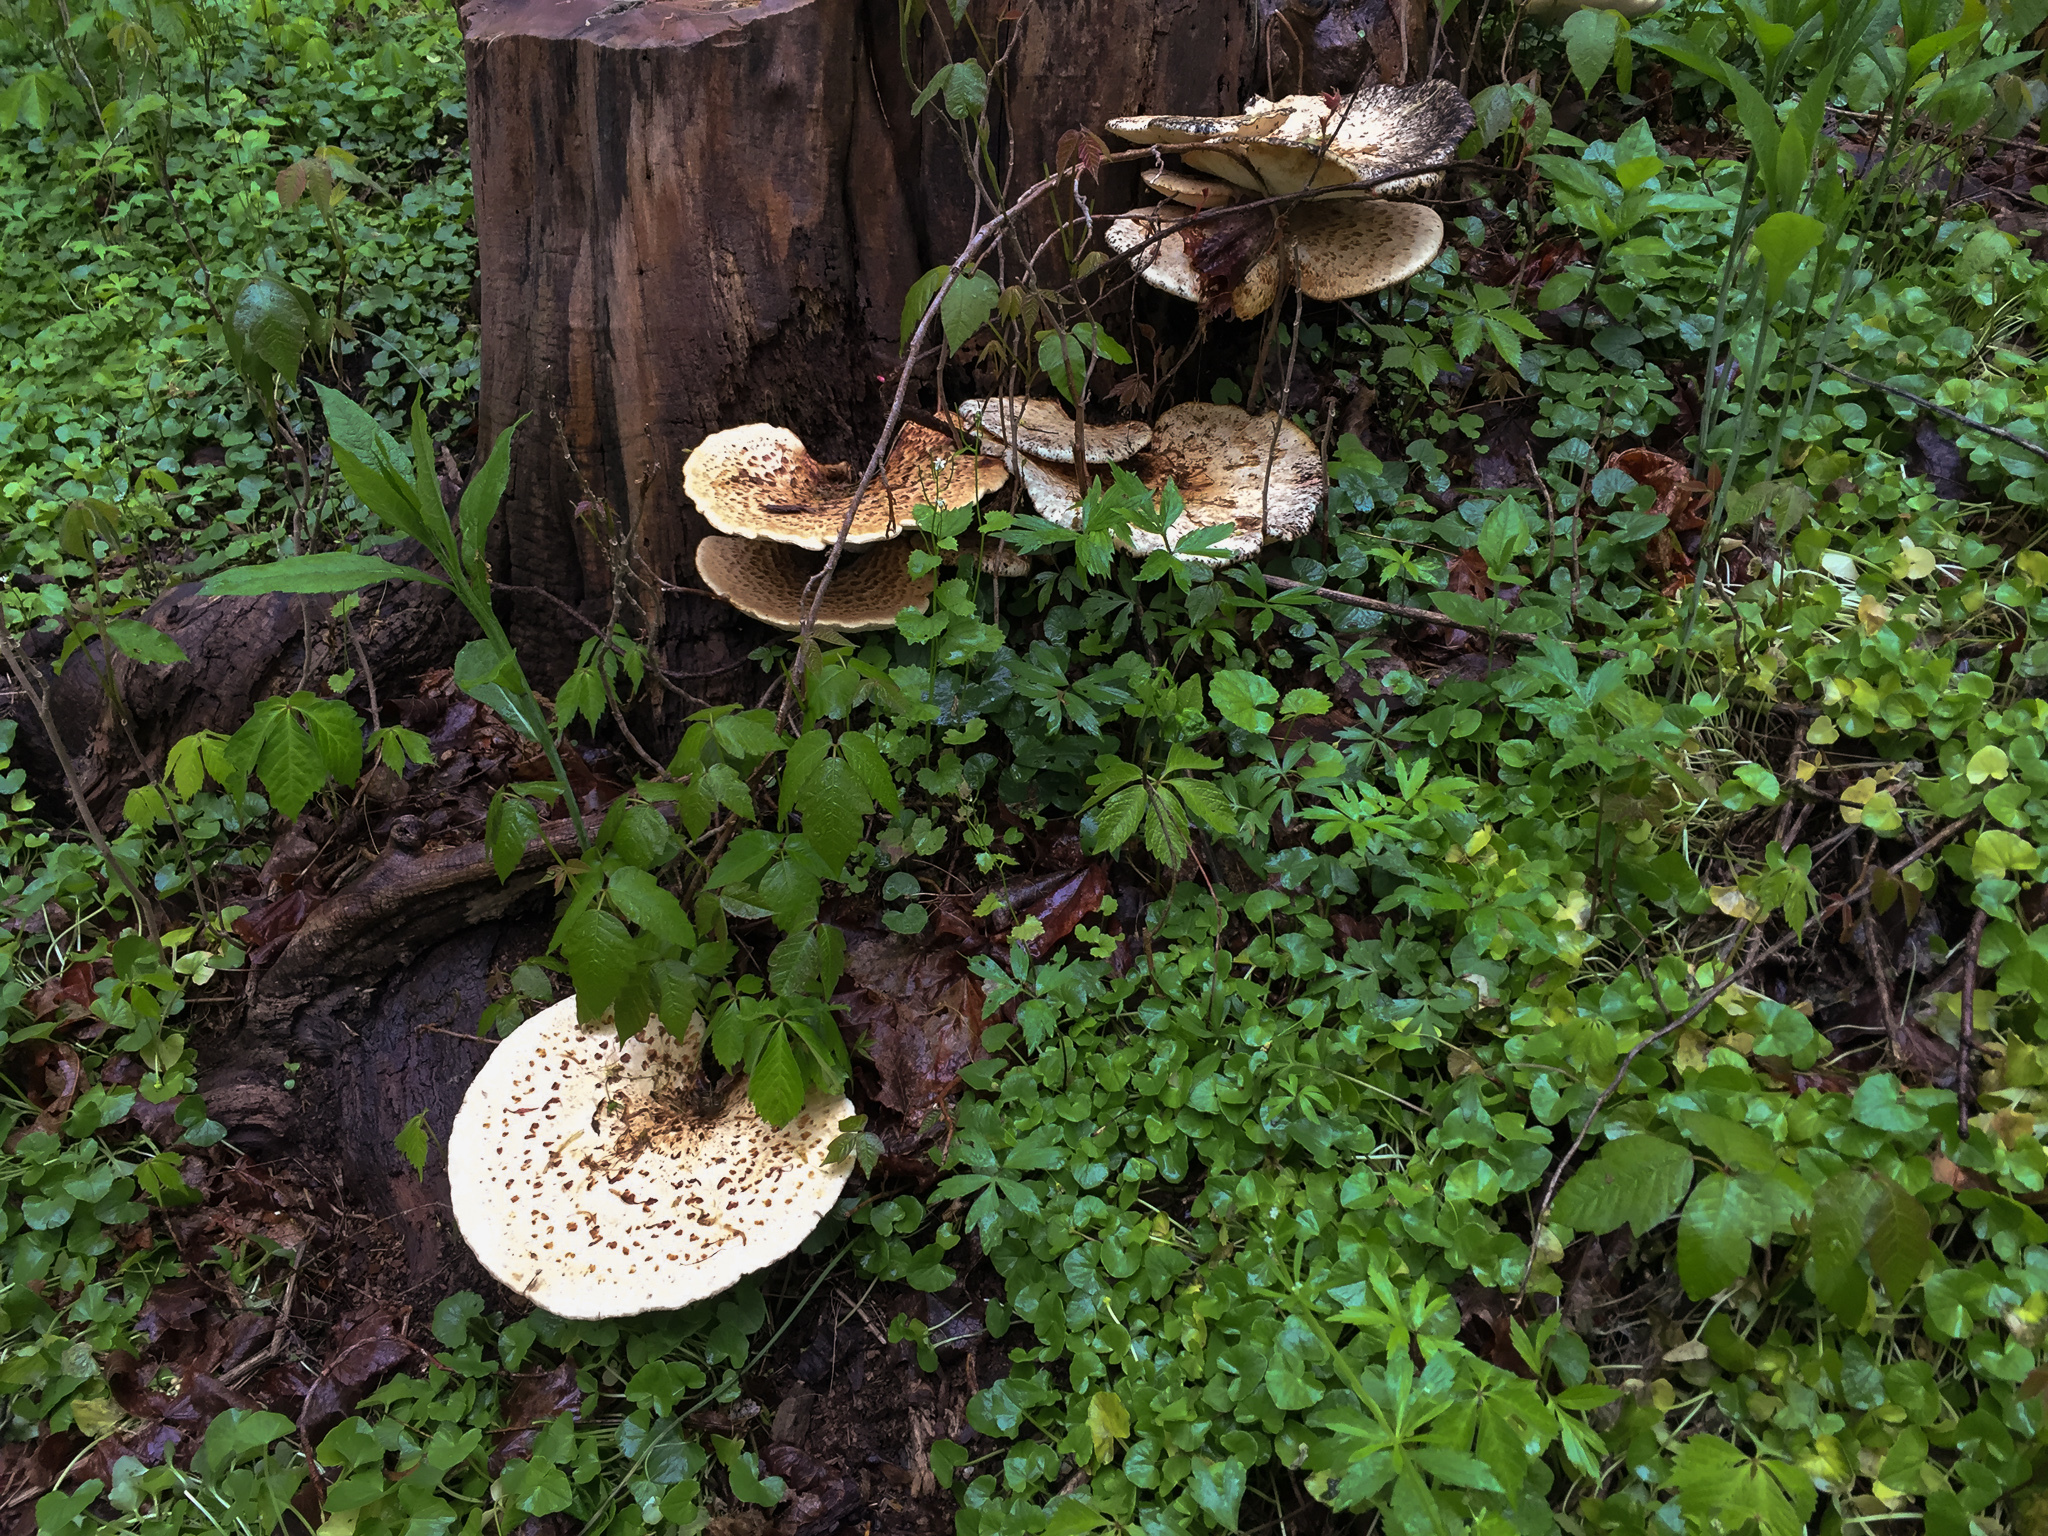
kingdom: Fungi
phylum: Basidiomycota
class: Agaricomycetes
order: Polyporales
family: Polyporaceae
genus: Cerioporus
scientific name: Cerioporus squamosus
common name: Dryad's saddle
